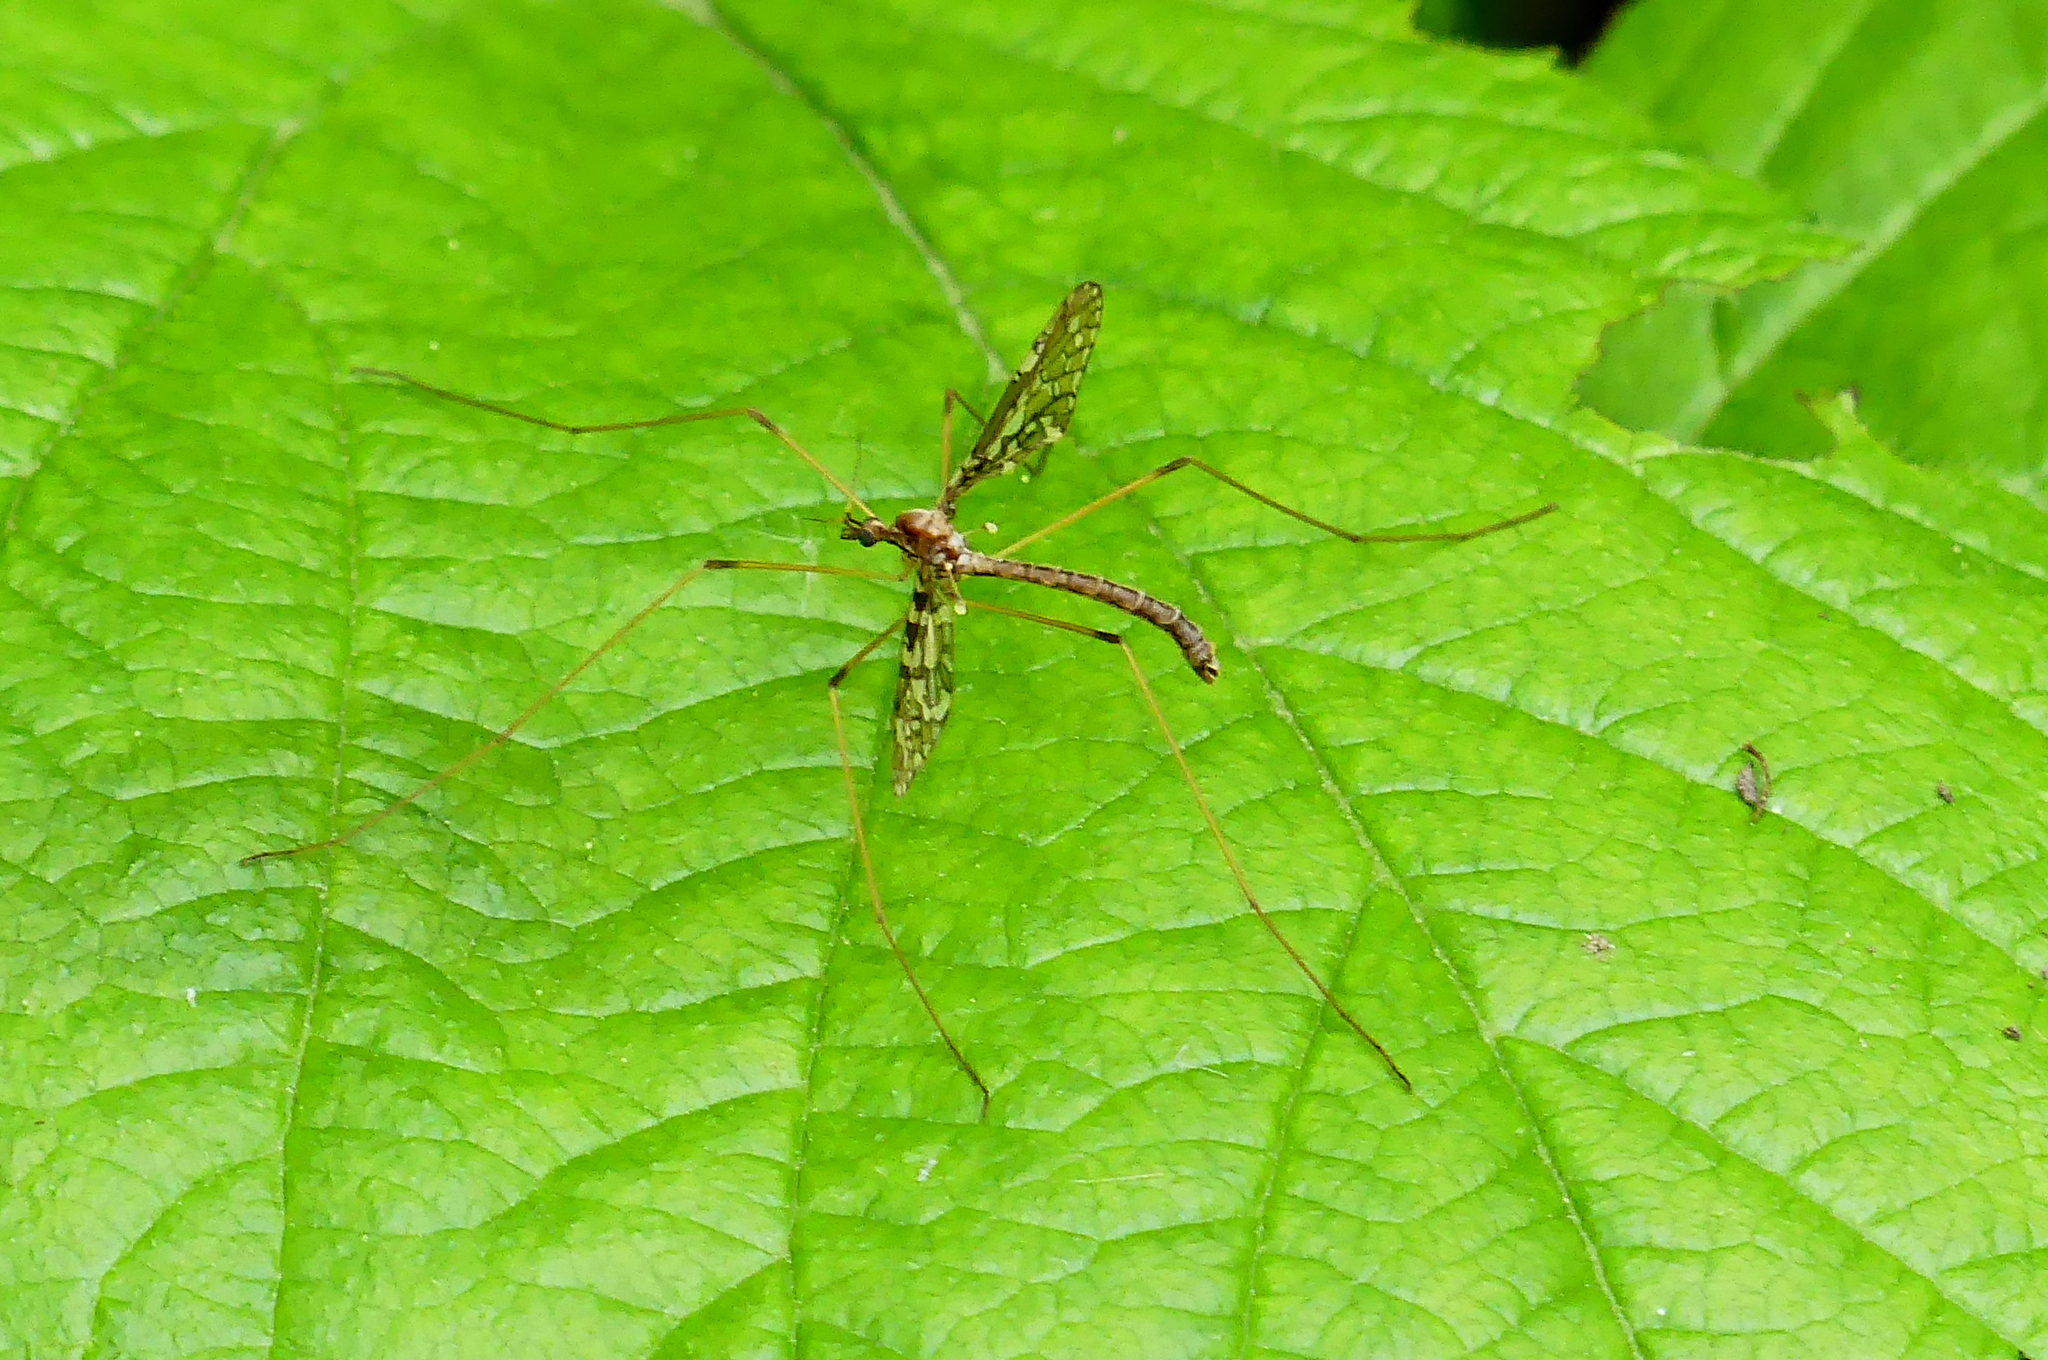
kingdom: Animalia
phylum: Arthropoda
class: Insecta
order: Diptera
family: Limoniidae
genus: Epiphragma
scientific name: Epiphragma fasciapenne
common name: Band-winged crane fly
